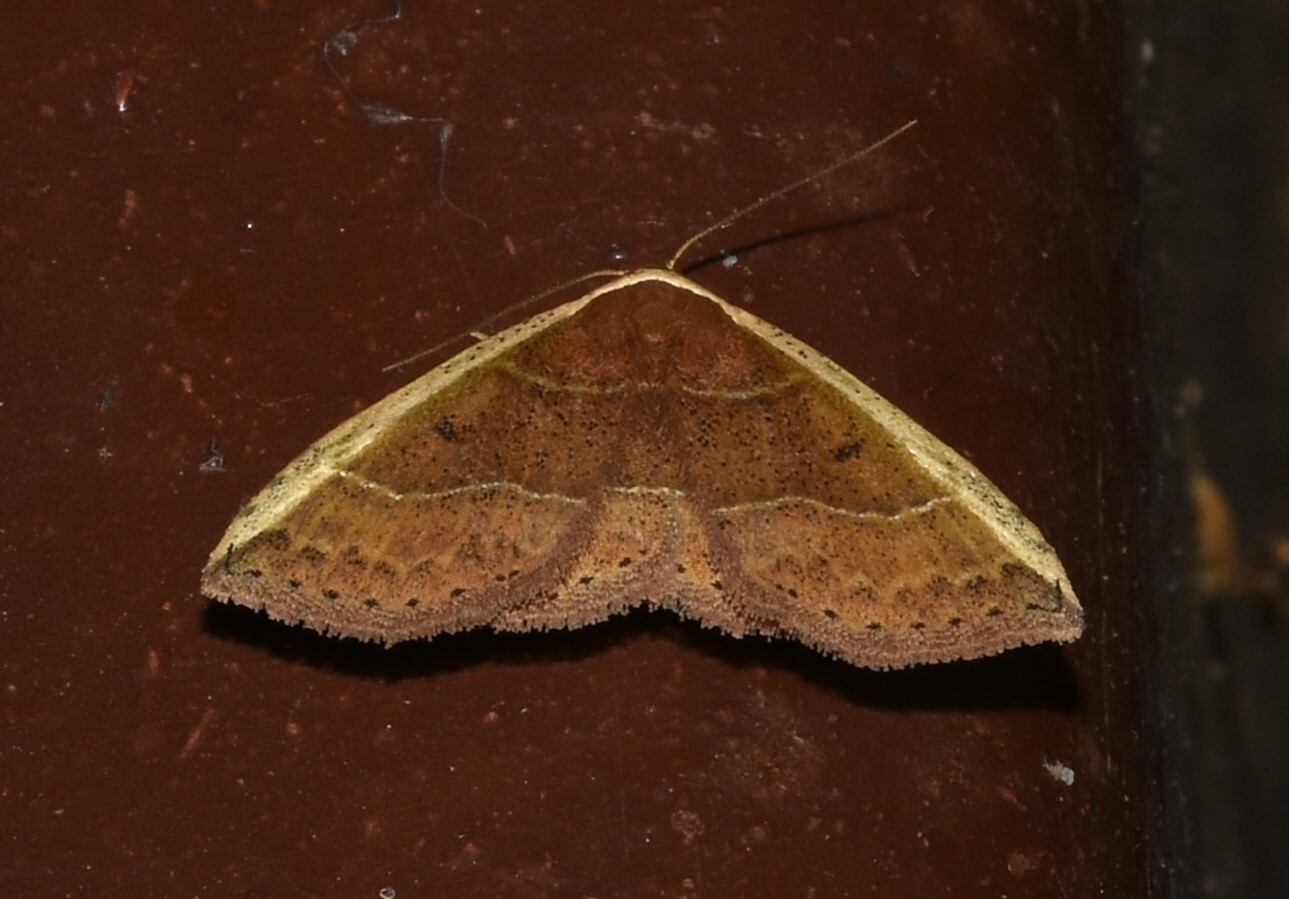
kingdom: Animalia
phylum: Arthropoda
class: Insecta
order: Lepidoptera
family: Noctuidae
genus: Ozarba
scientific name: Ozarba albocostaliata
